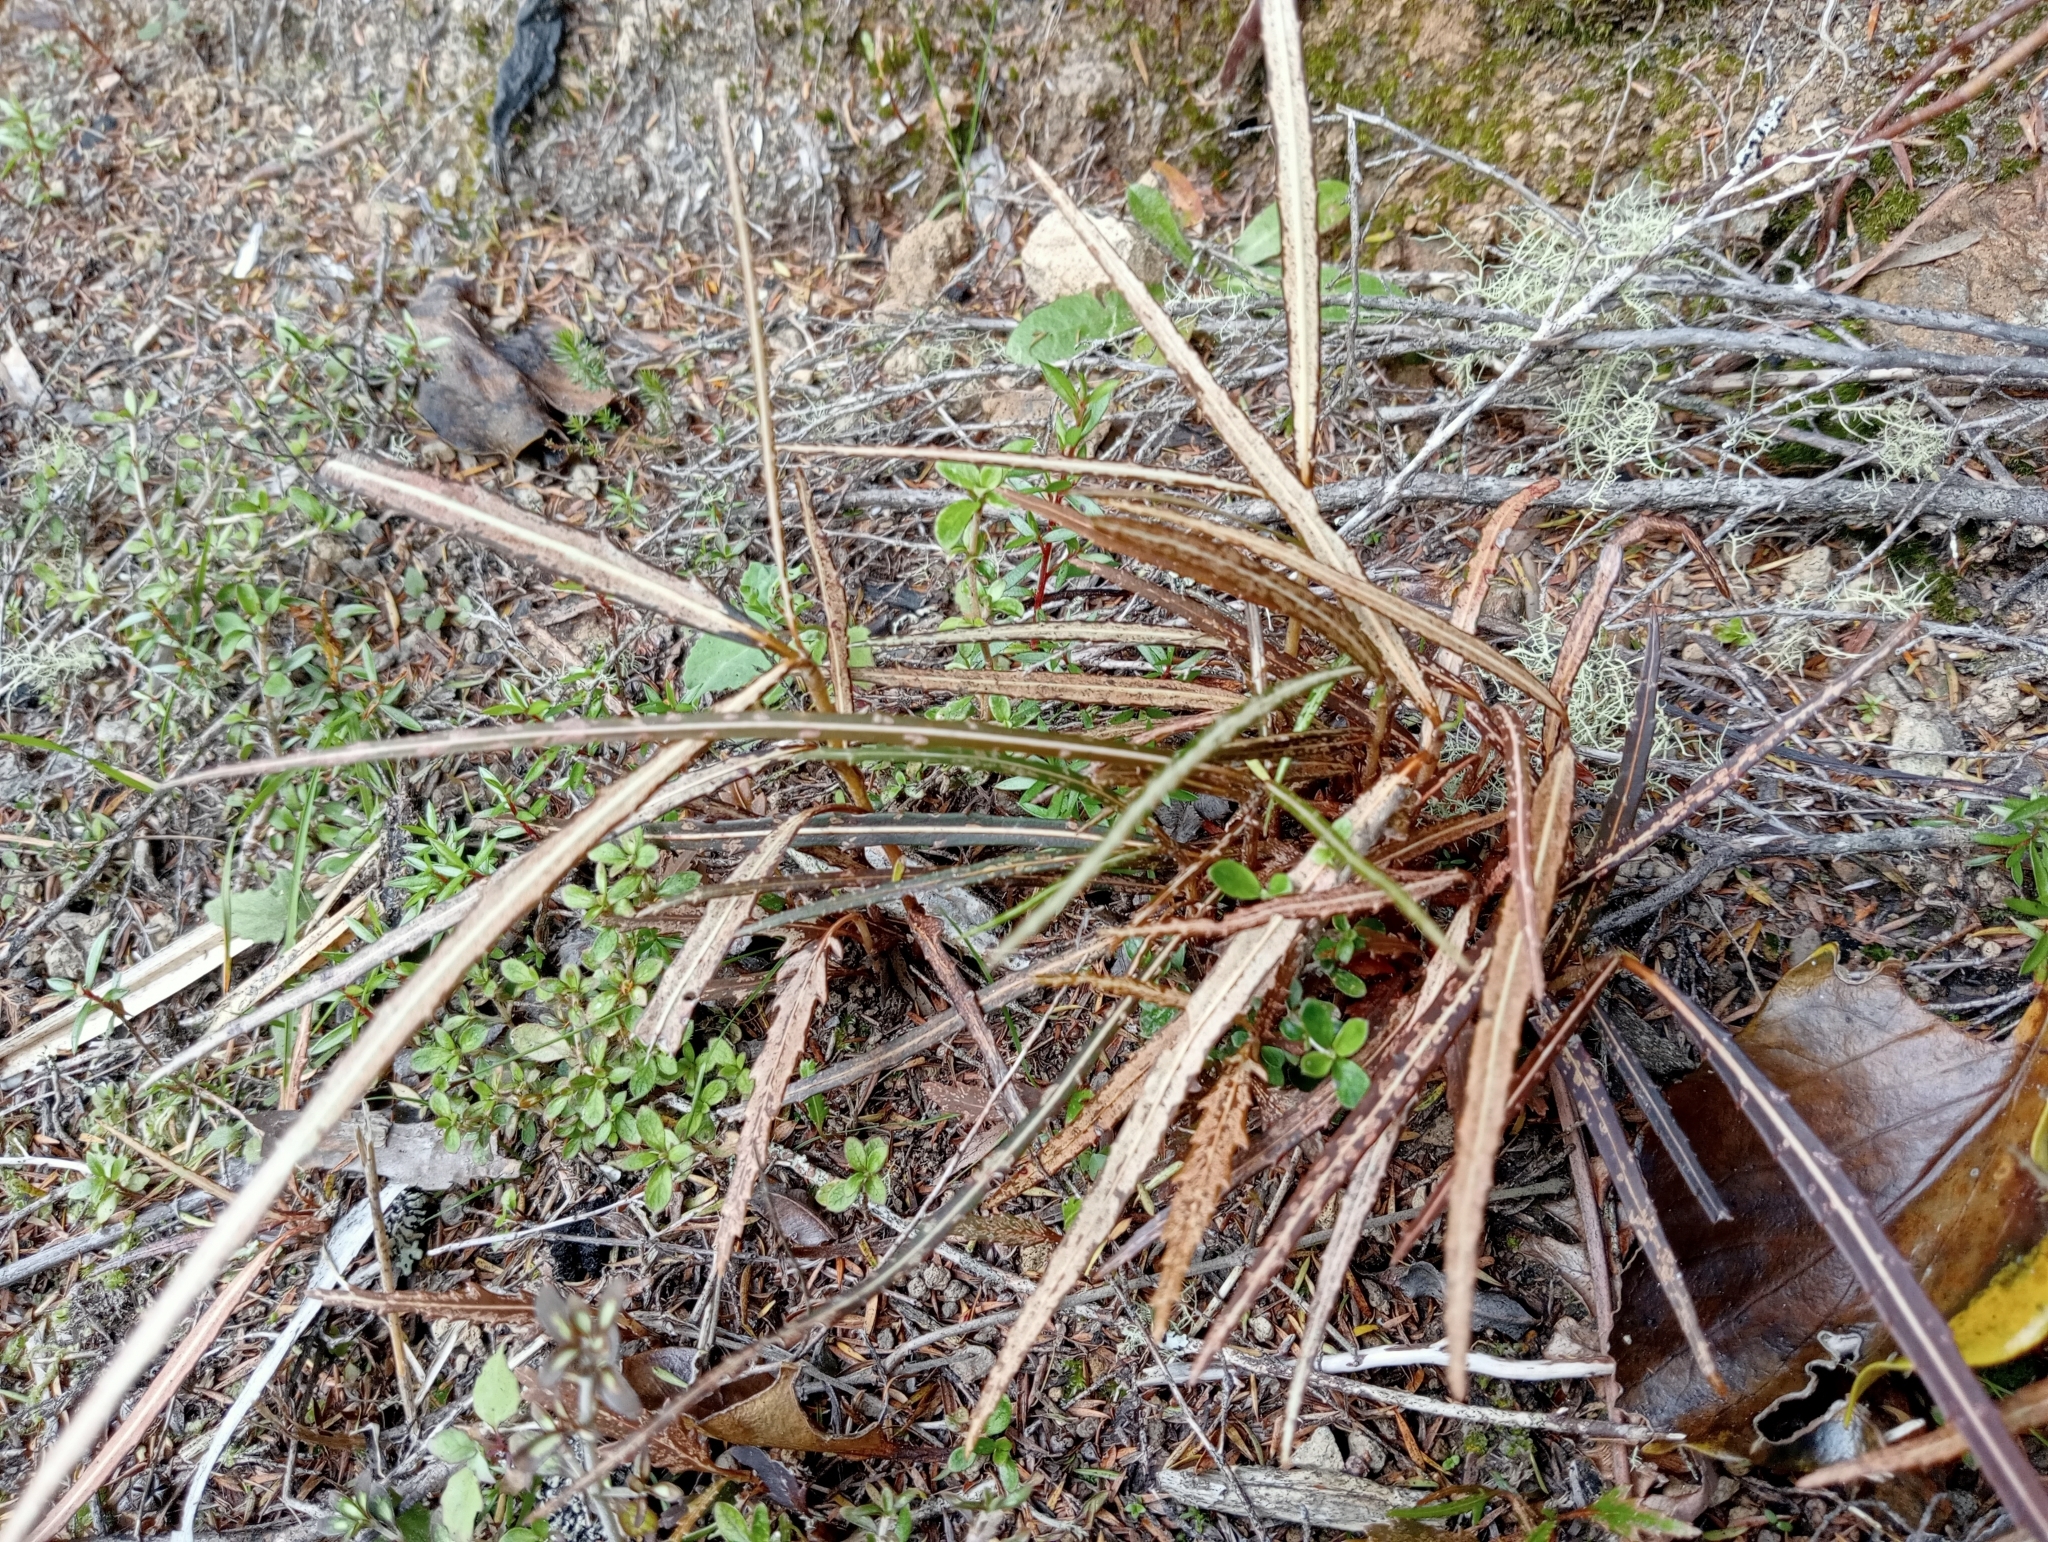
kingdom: Plantae
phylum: Tracheophyta
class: Magnoliopsida
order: Apiales
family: Araliaceae
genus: Pseudopanax
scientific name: Pseudopanax crassifolius
